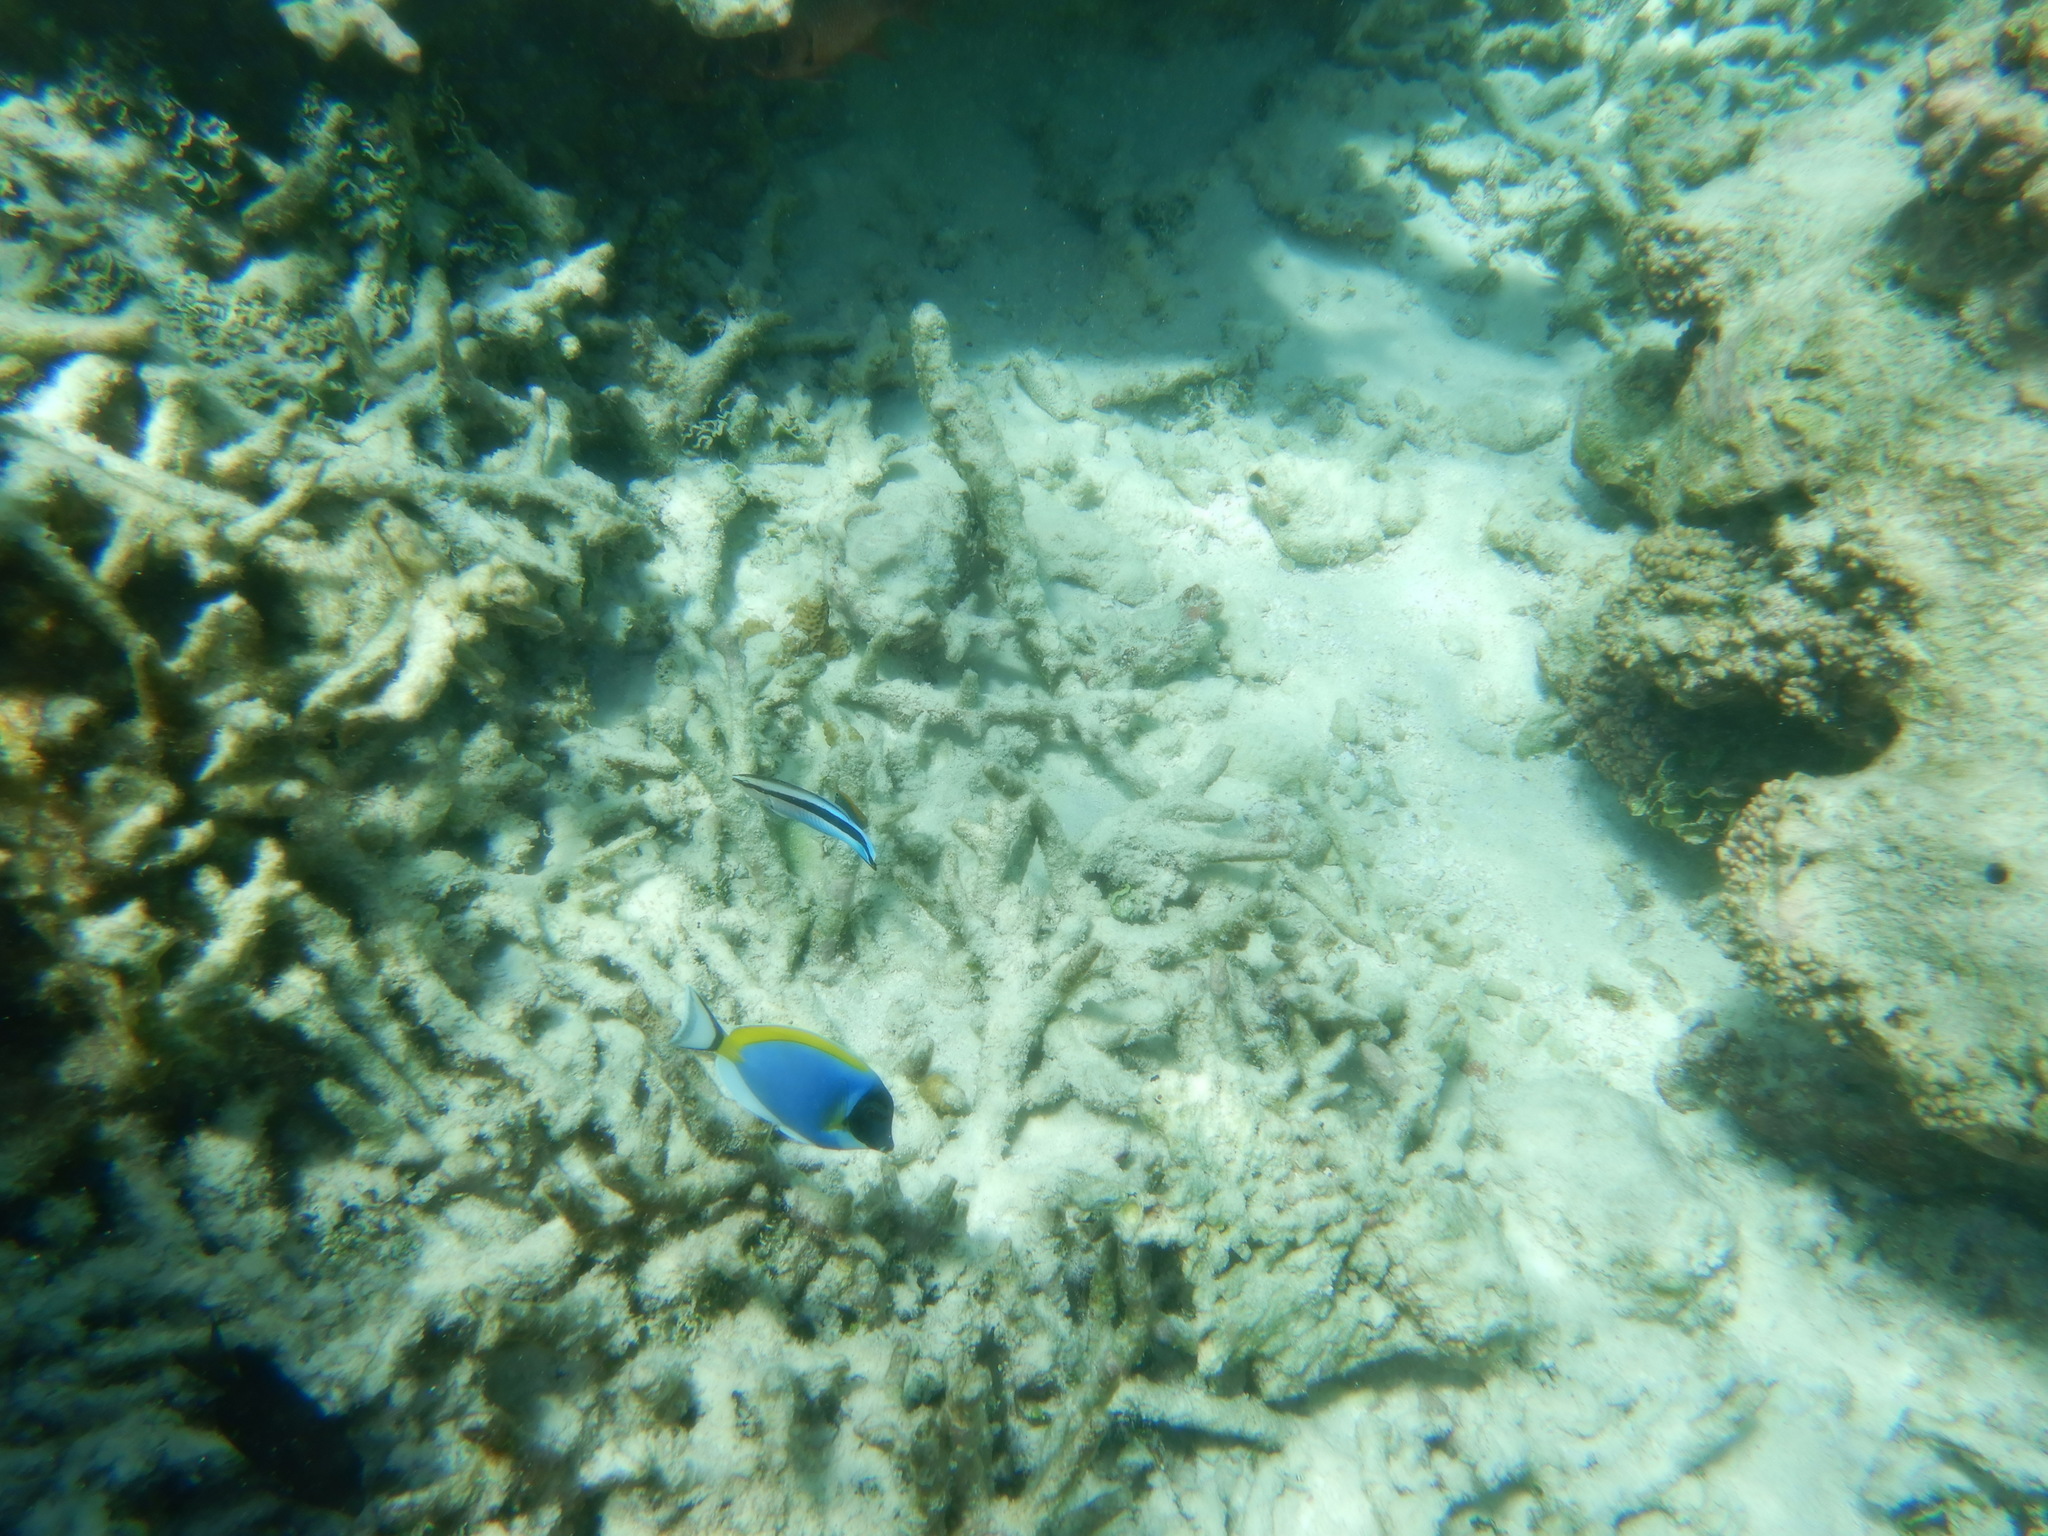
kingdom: Animalia
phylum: Chordata
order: Perciformes
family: Acanthuridae
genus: Acanthurus
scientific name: Acanthurus leucosternon
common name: Blue surgeonfish
